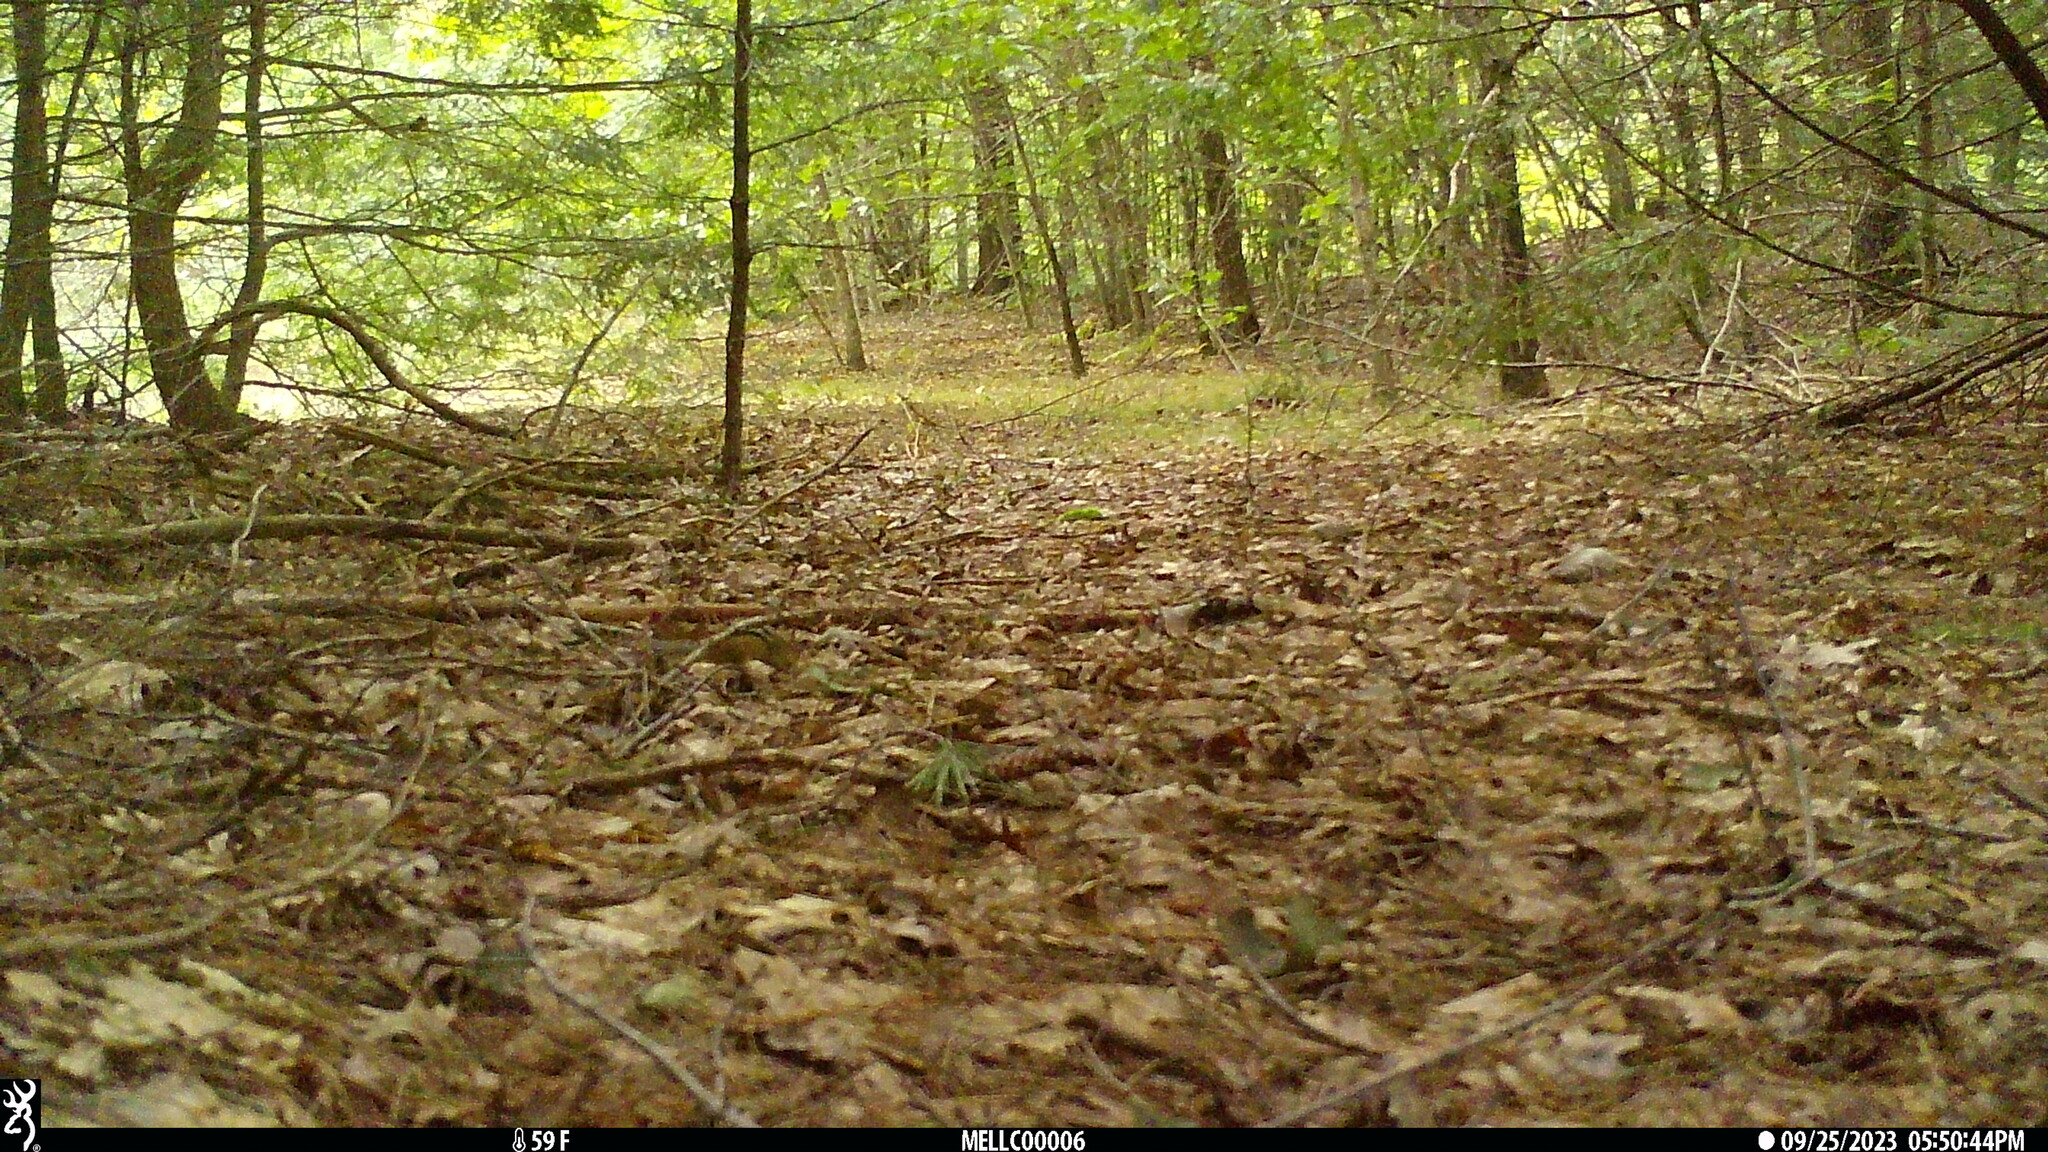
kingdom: Animalia
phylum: Chordata
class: Mammalia
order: Rodentia
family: Sciuridae
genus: Tamias
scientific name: Tamias striatus
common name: Eastern chipmunk
